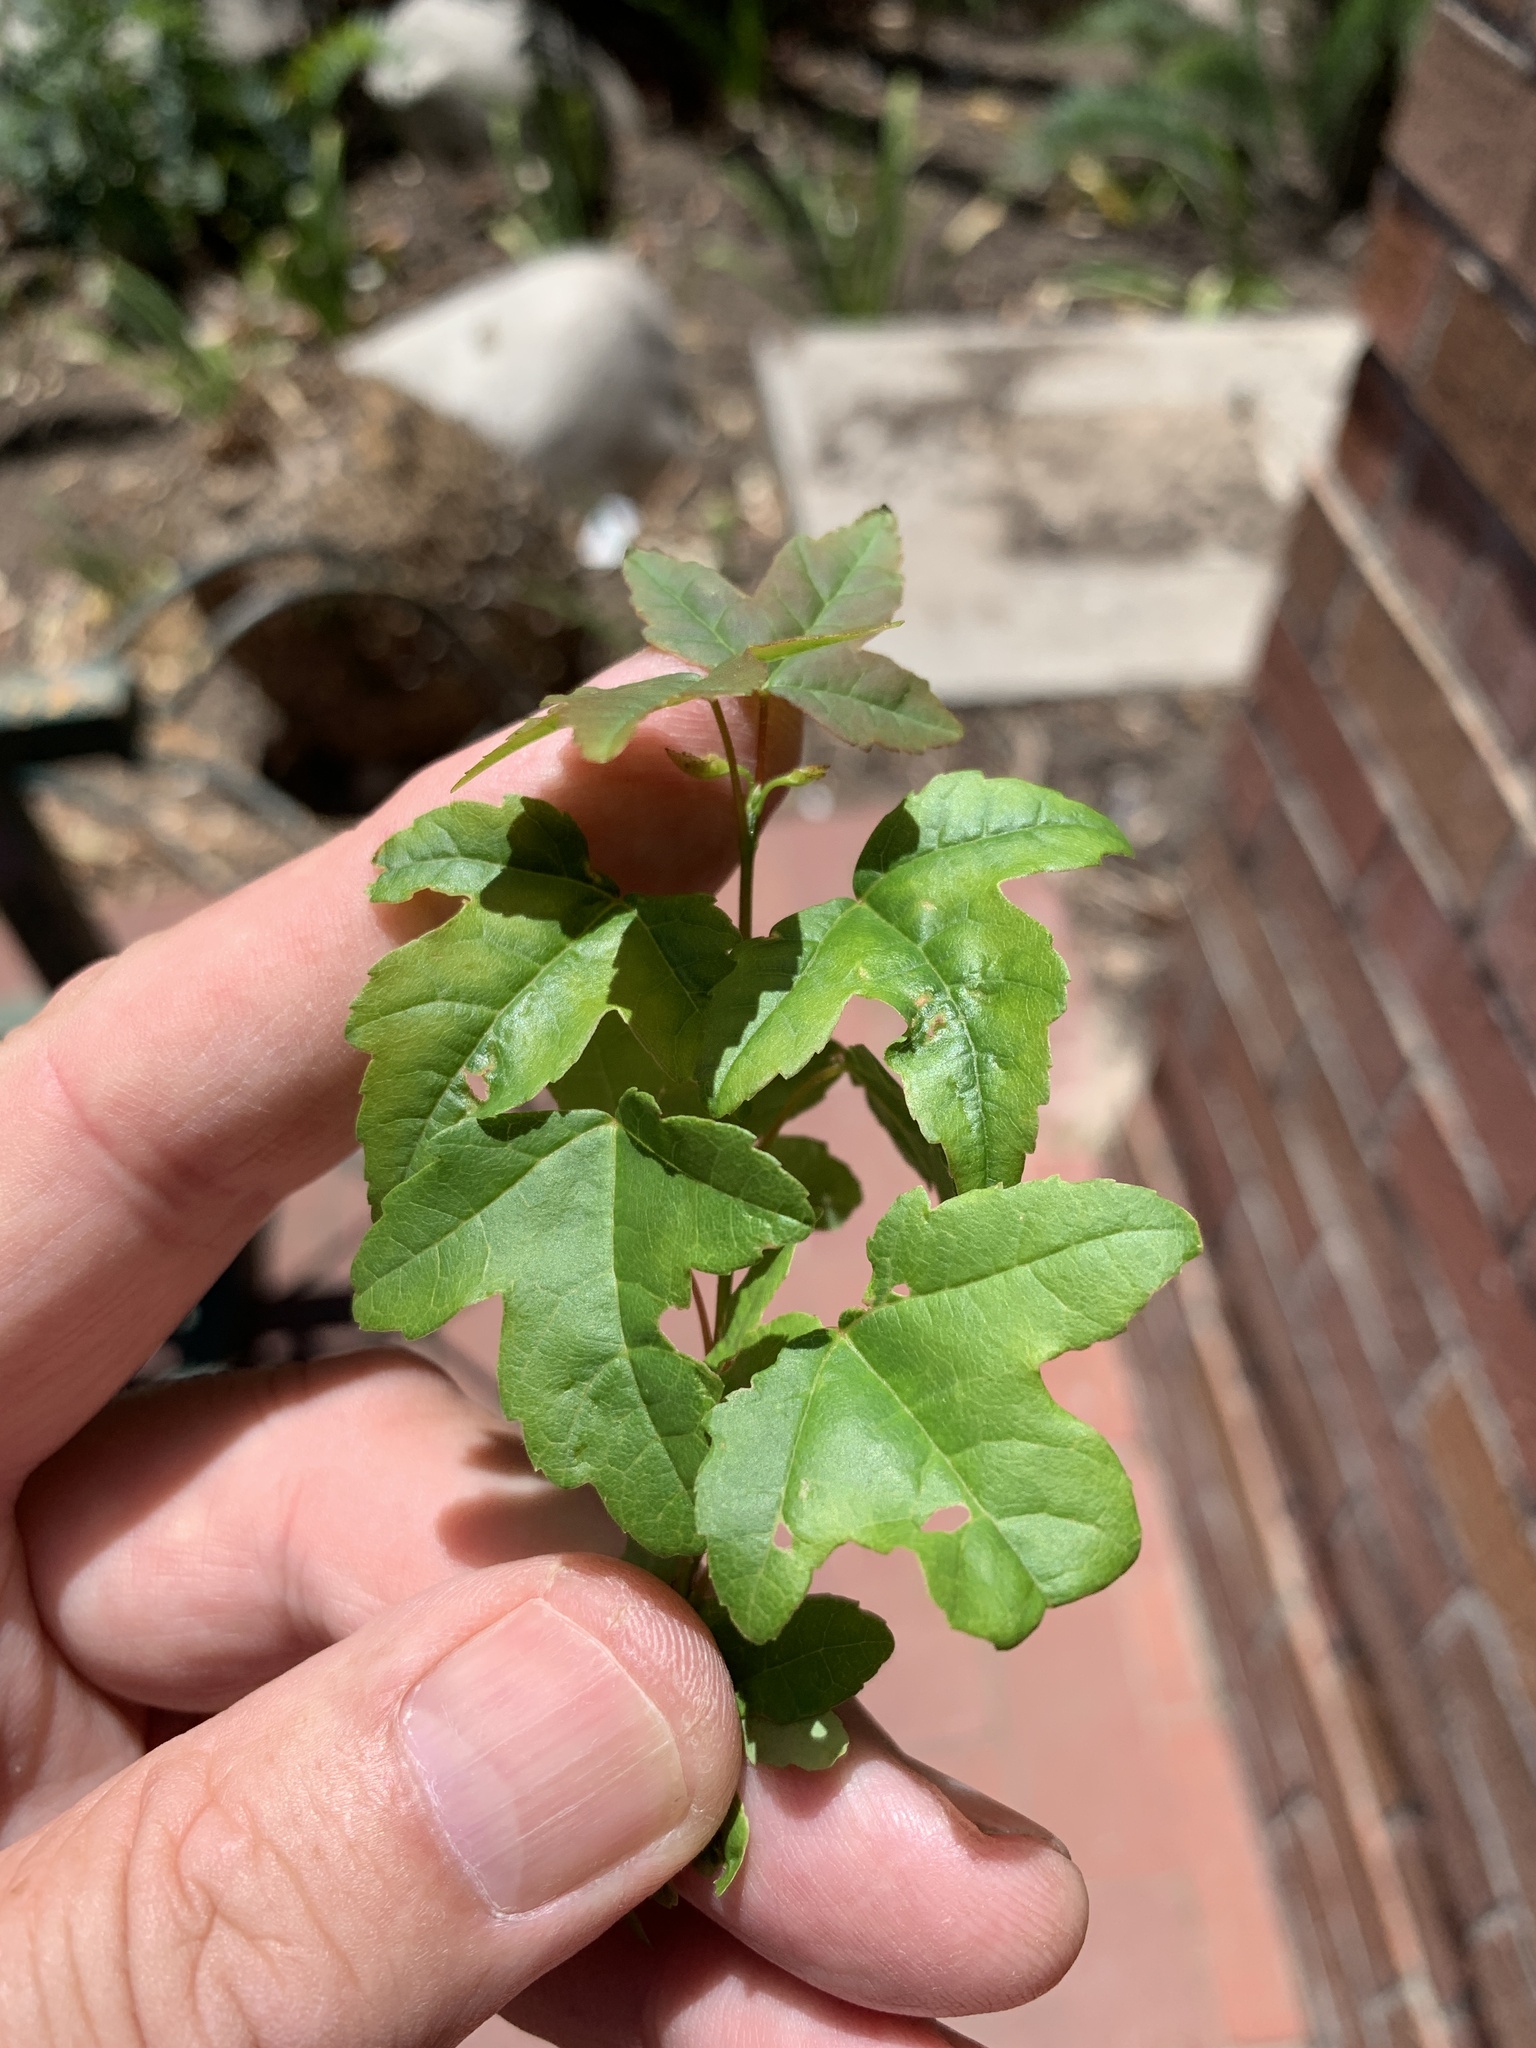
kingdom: Plantae
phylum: Tracheophyta
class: Magnoliopsida
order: Sapindales
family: Sapindaceae
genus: Acer
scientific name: Acer buergerianum
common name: Trident maple
